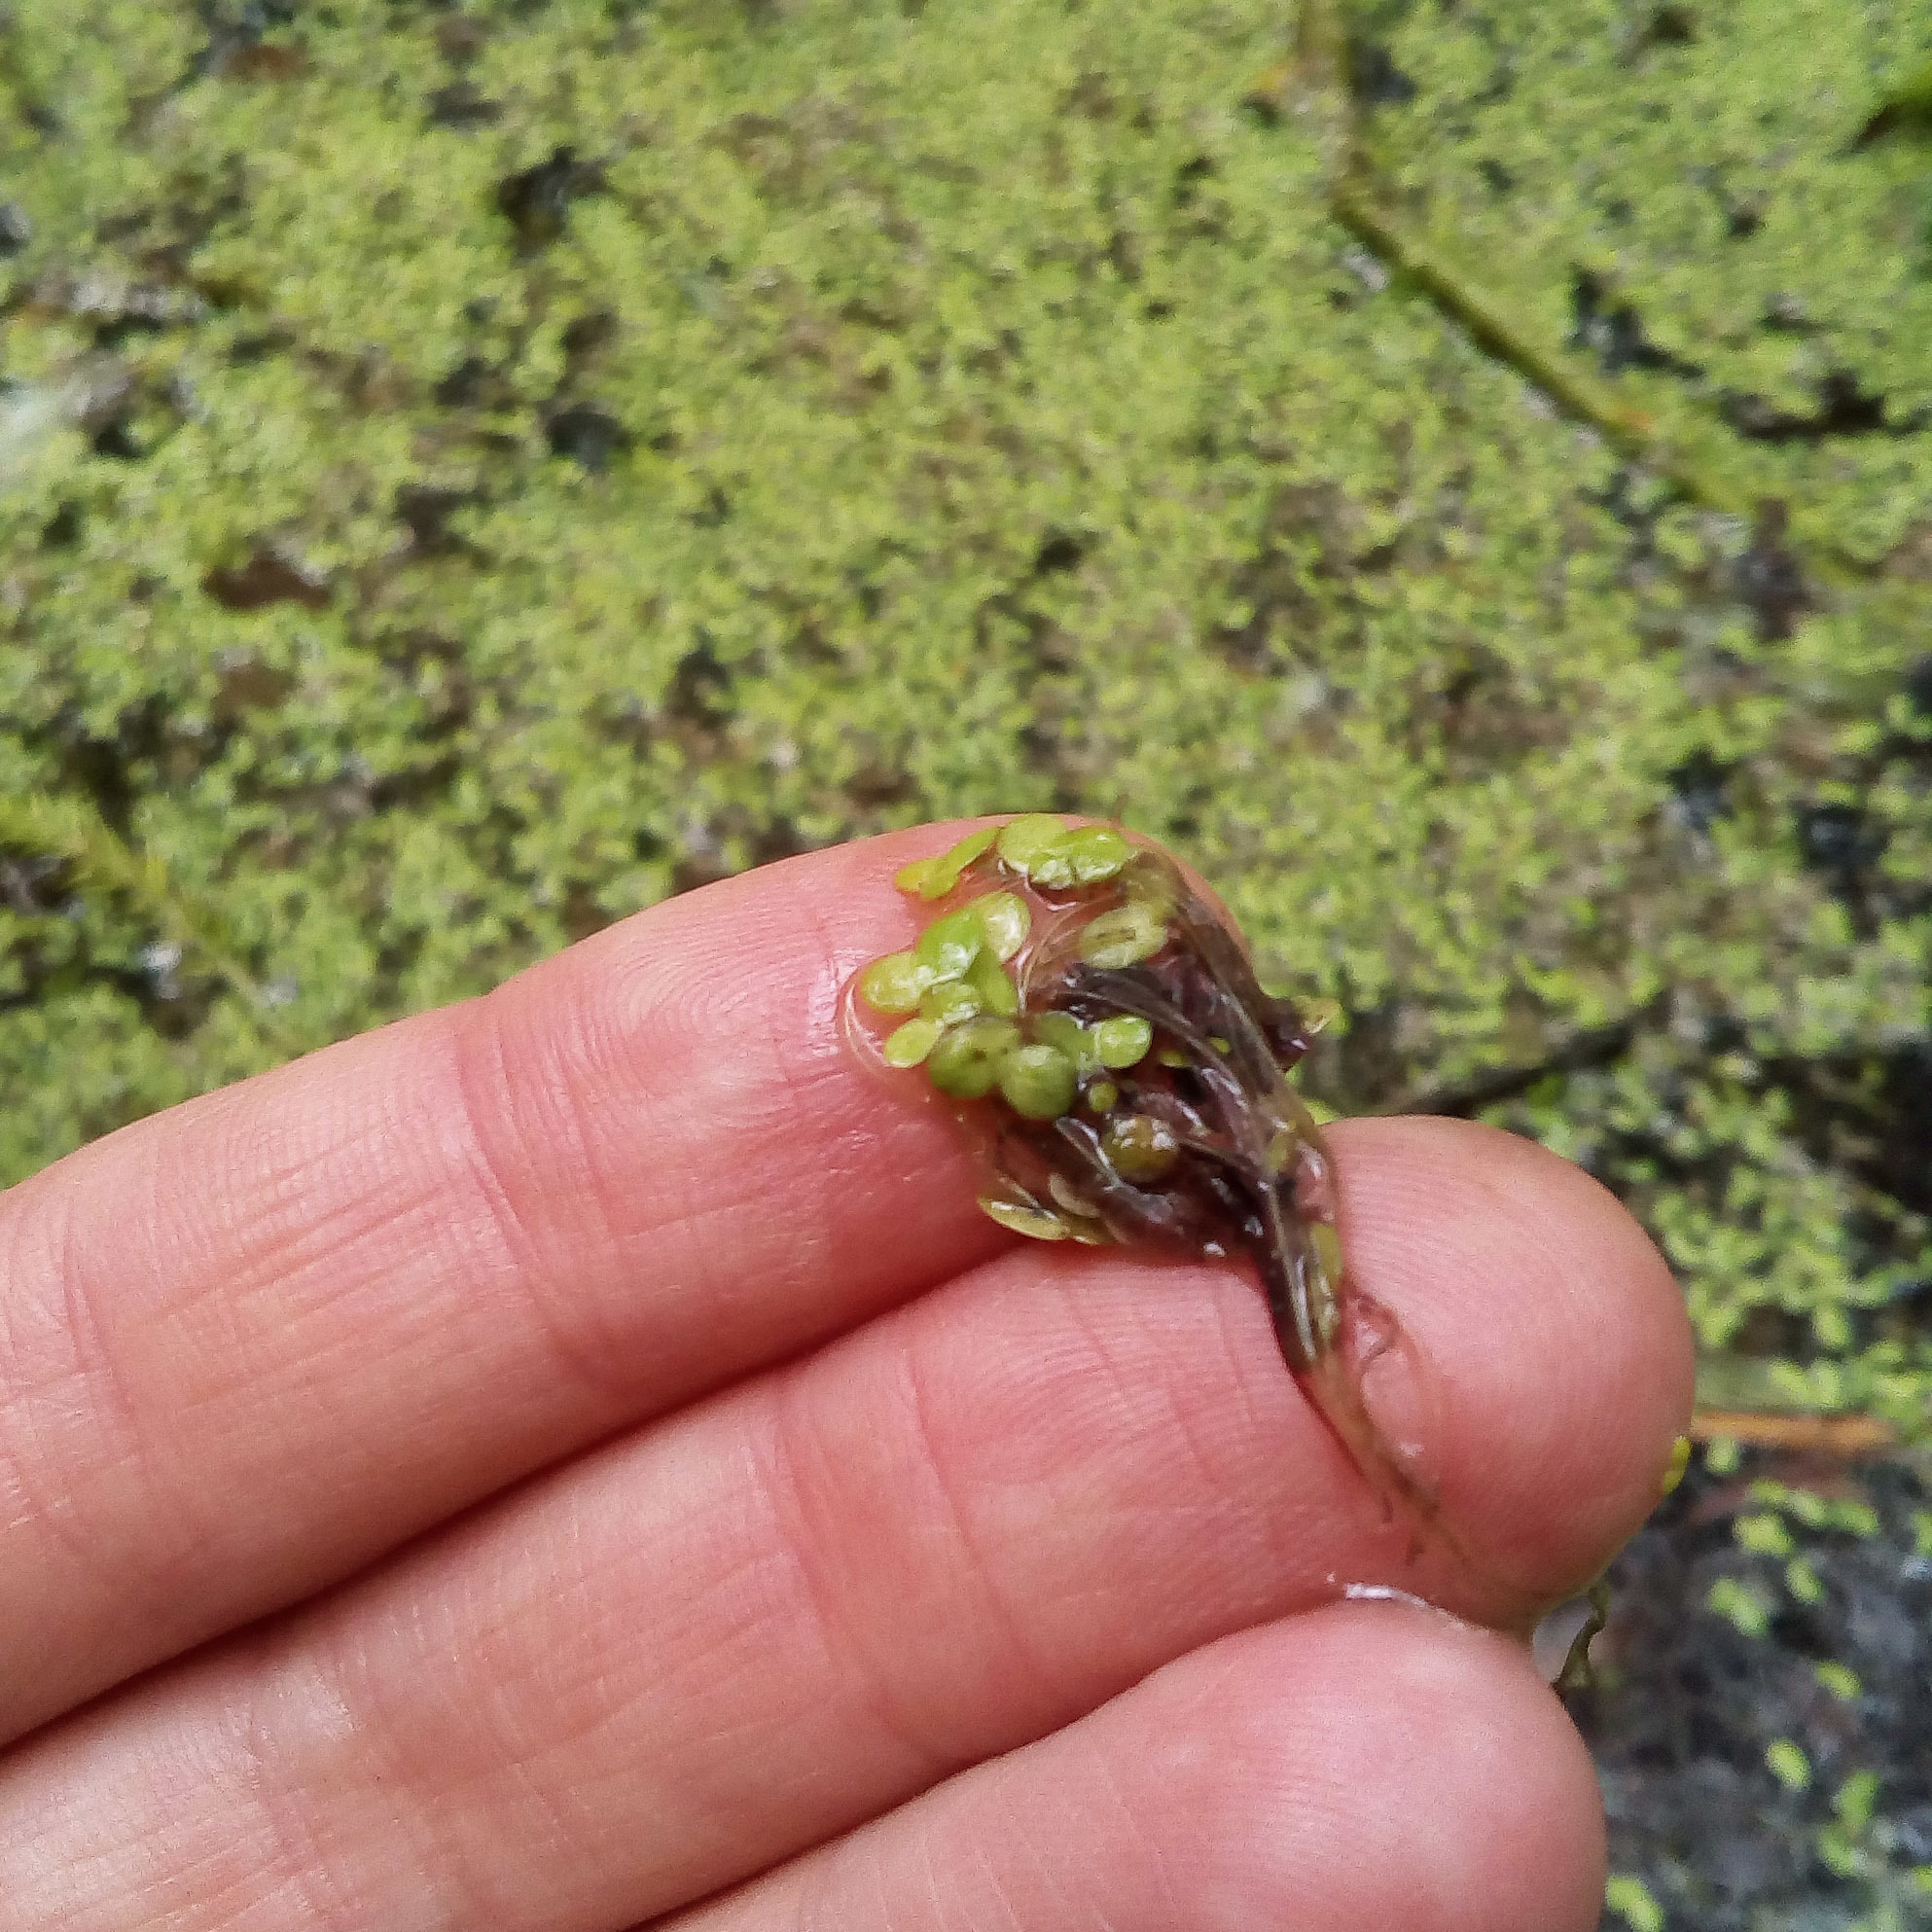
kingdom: Plantae
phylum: Tracheophyta
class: Liliopsida
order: Alismatales
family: Araceae
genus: Lemna
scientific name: Lemna minor
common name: Common duckweed
